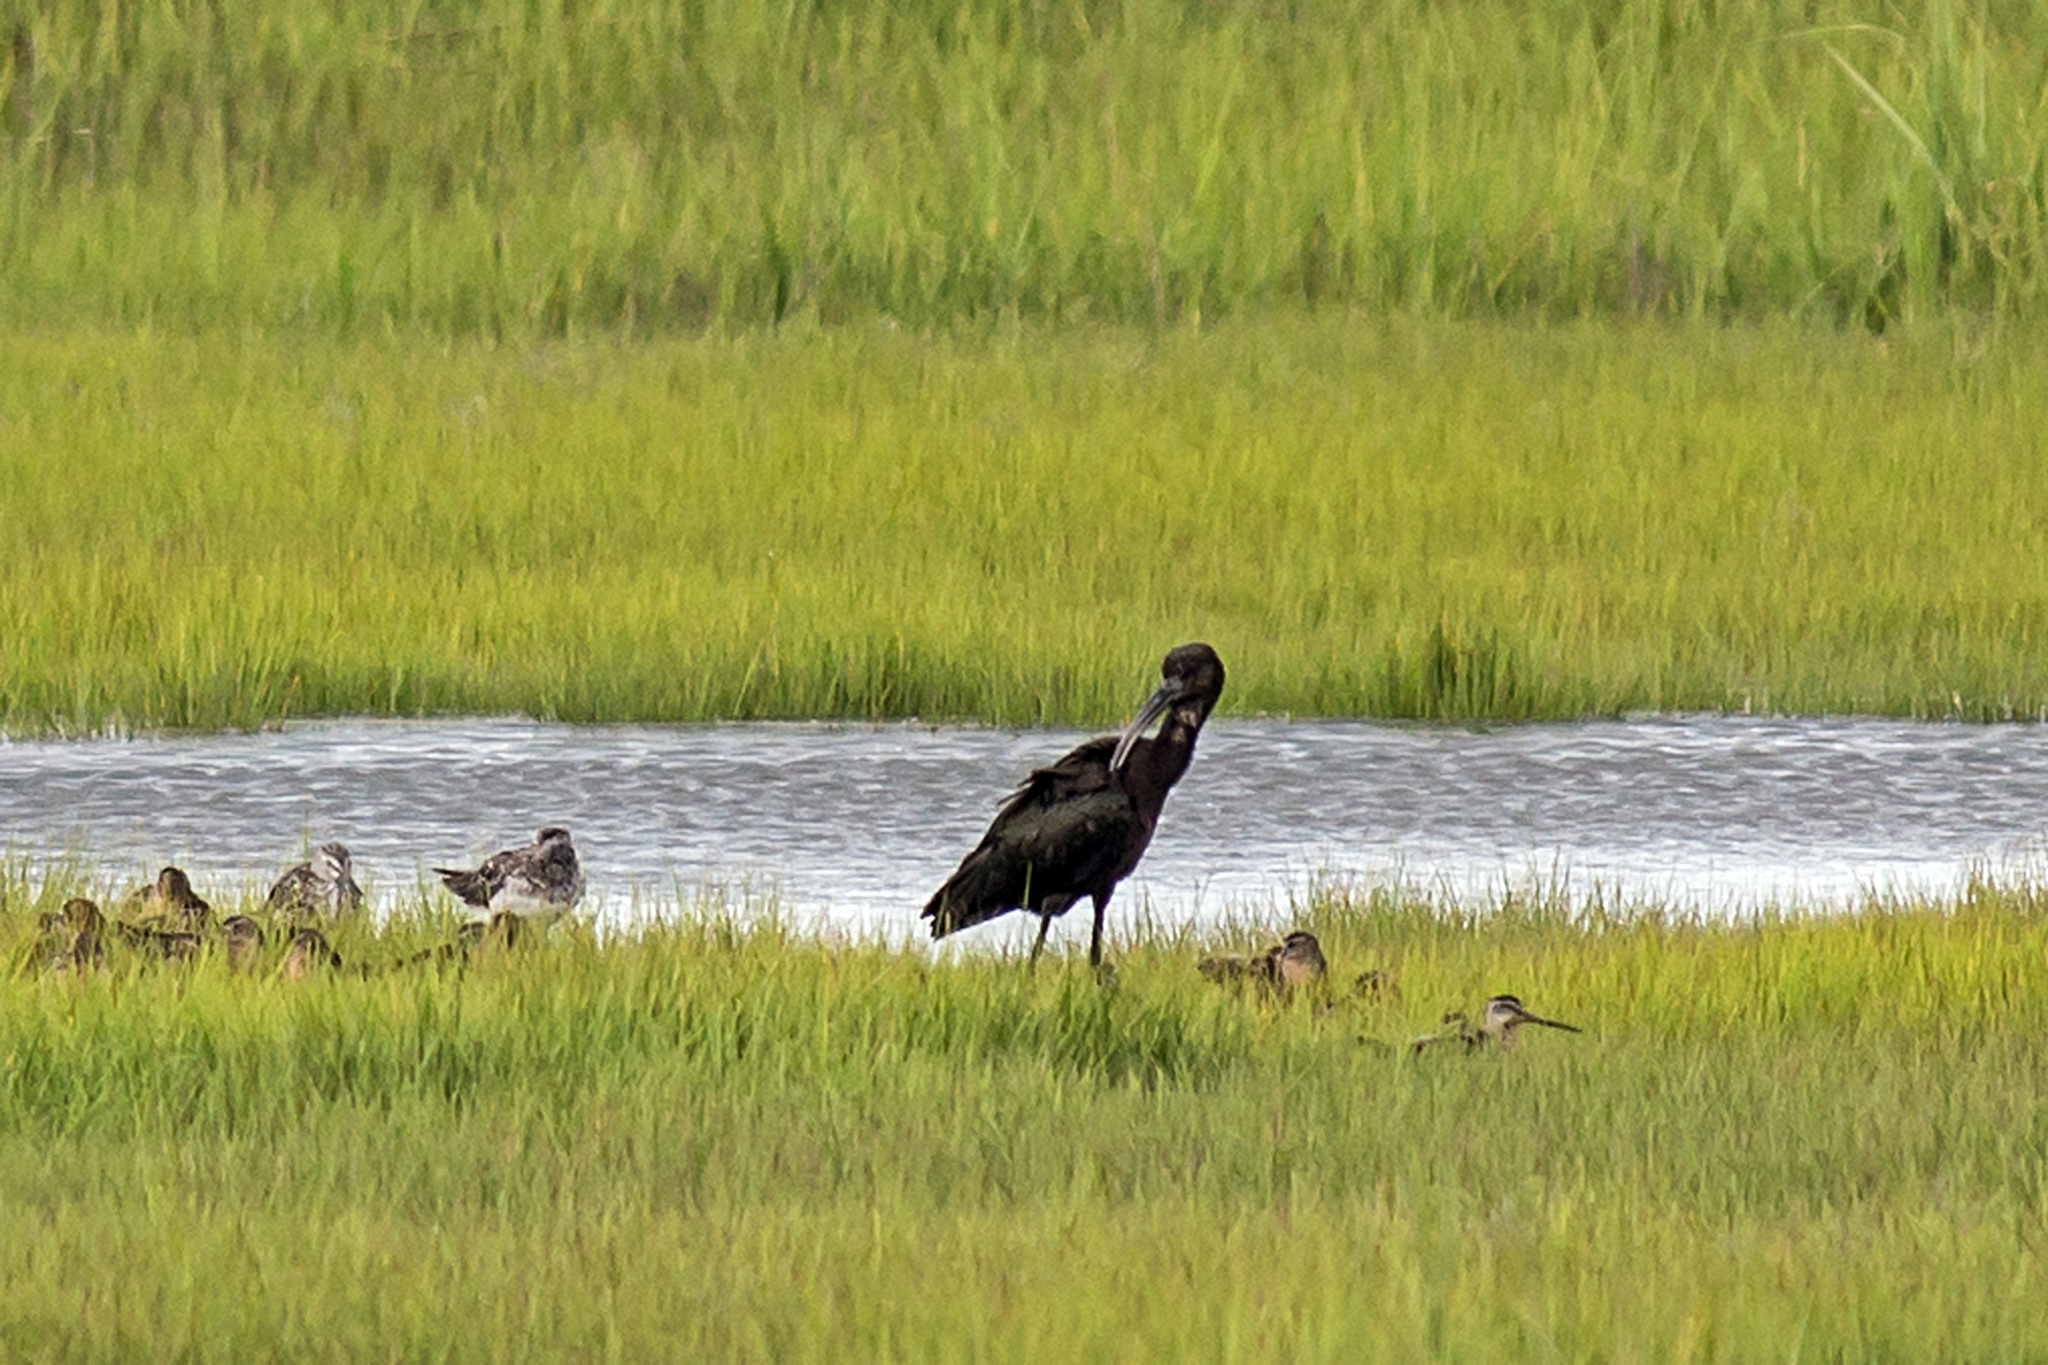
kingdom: Animalia
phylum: Chordata
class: Aves
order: Pelecaniformes
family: Threskiornithidae
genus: Plegadis
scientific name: Plegadis falcinellus
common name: Glossy ibis
